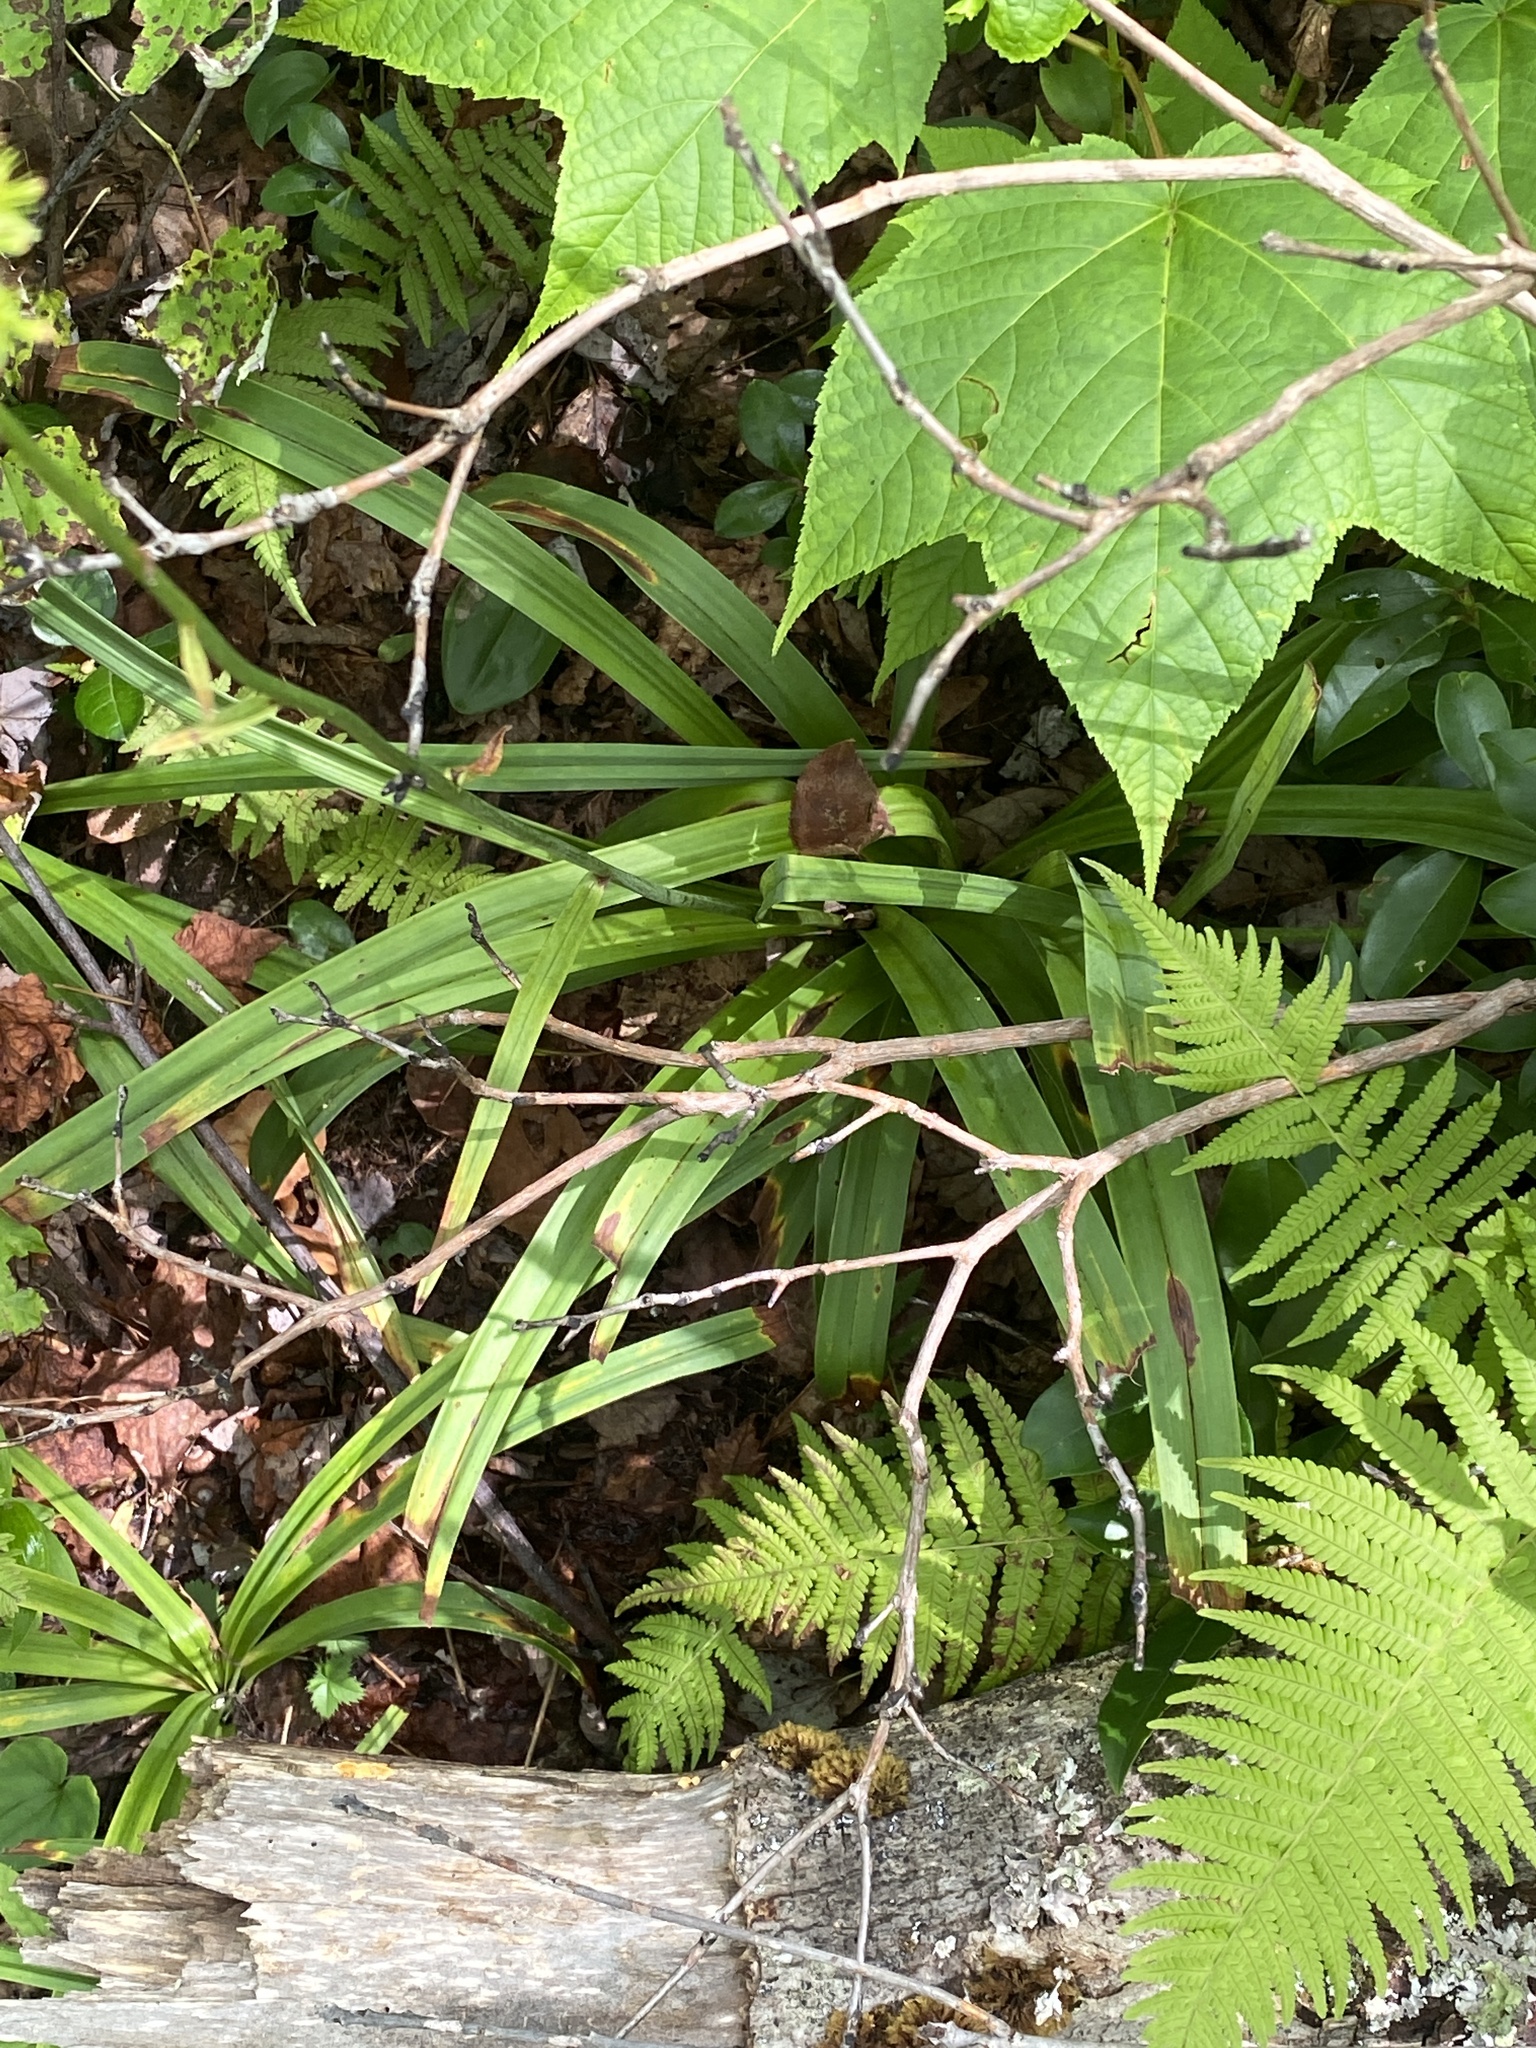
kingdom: Plantae
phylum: Tracheophyta
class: Liliopsida
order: Liliales
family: Melanthiaceae
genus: Amianthium
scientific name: Amianthium muscitoxicum
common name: Fly-poison
